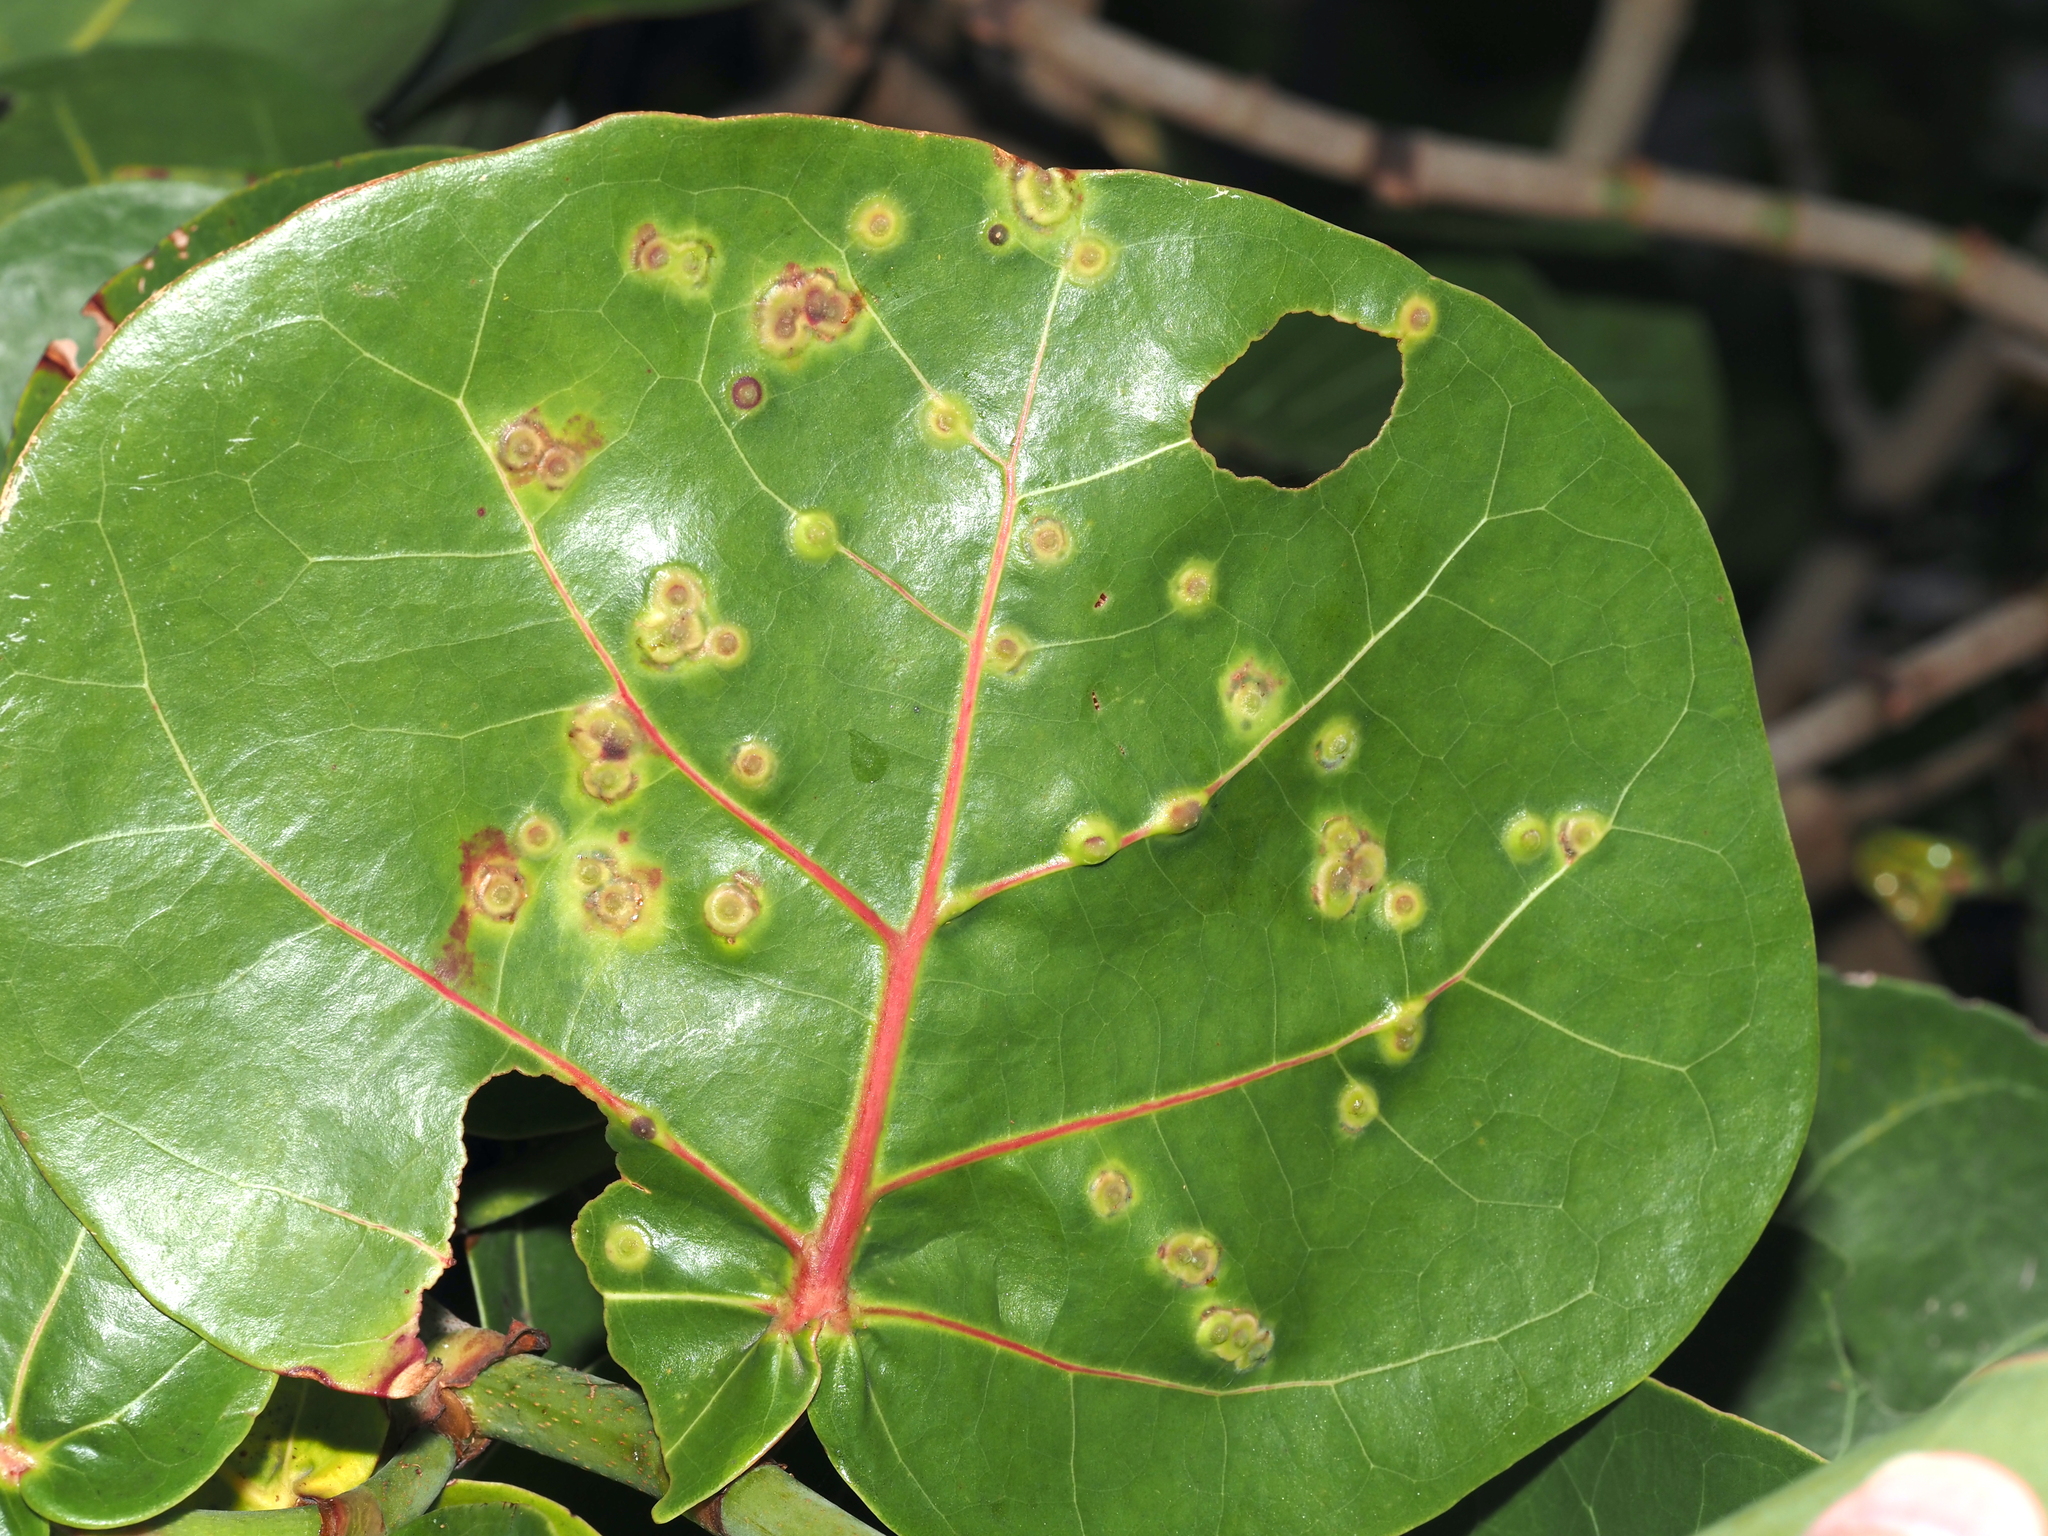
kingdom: Animalia
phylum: Arthropoda
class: Insecta
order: Diptera
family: Cecidomyiidae
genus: Ctenodactylomyia
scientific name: Ctenodactylomyia watsoni
